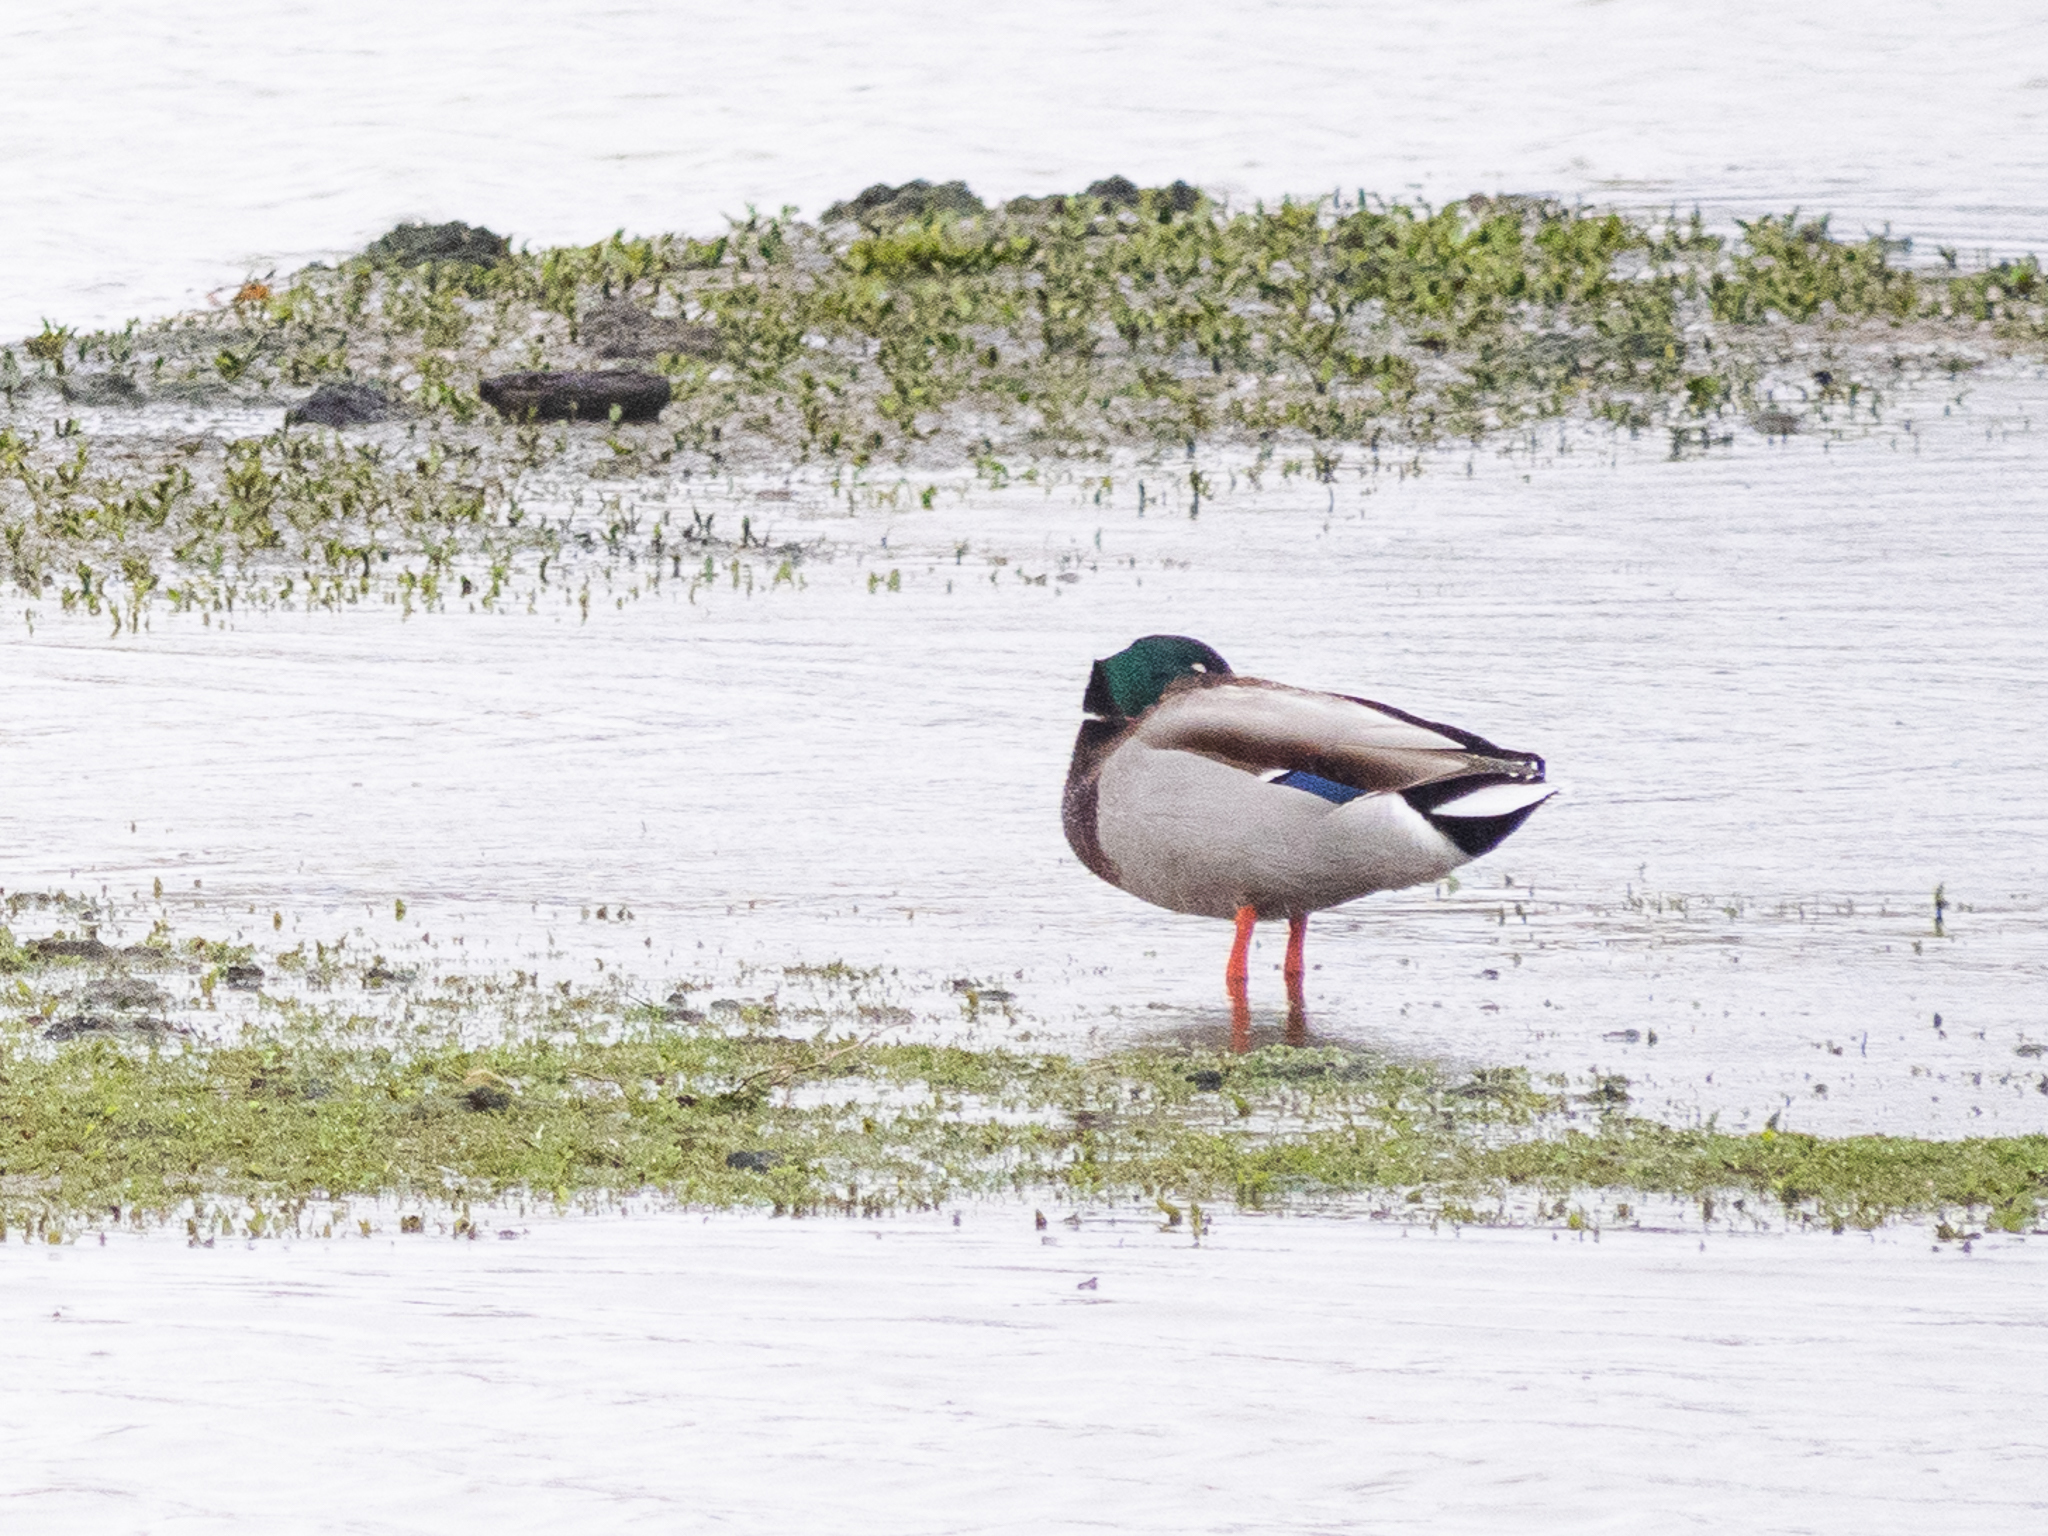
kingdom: Animalia
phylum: Chordata
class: Aves
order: Anseriformes
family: Anatidae
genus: Anas
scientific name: Anas platyrhynchos
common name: Mallard
